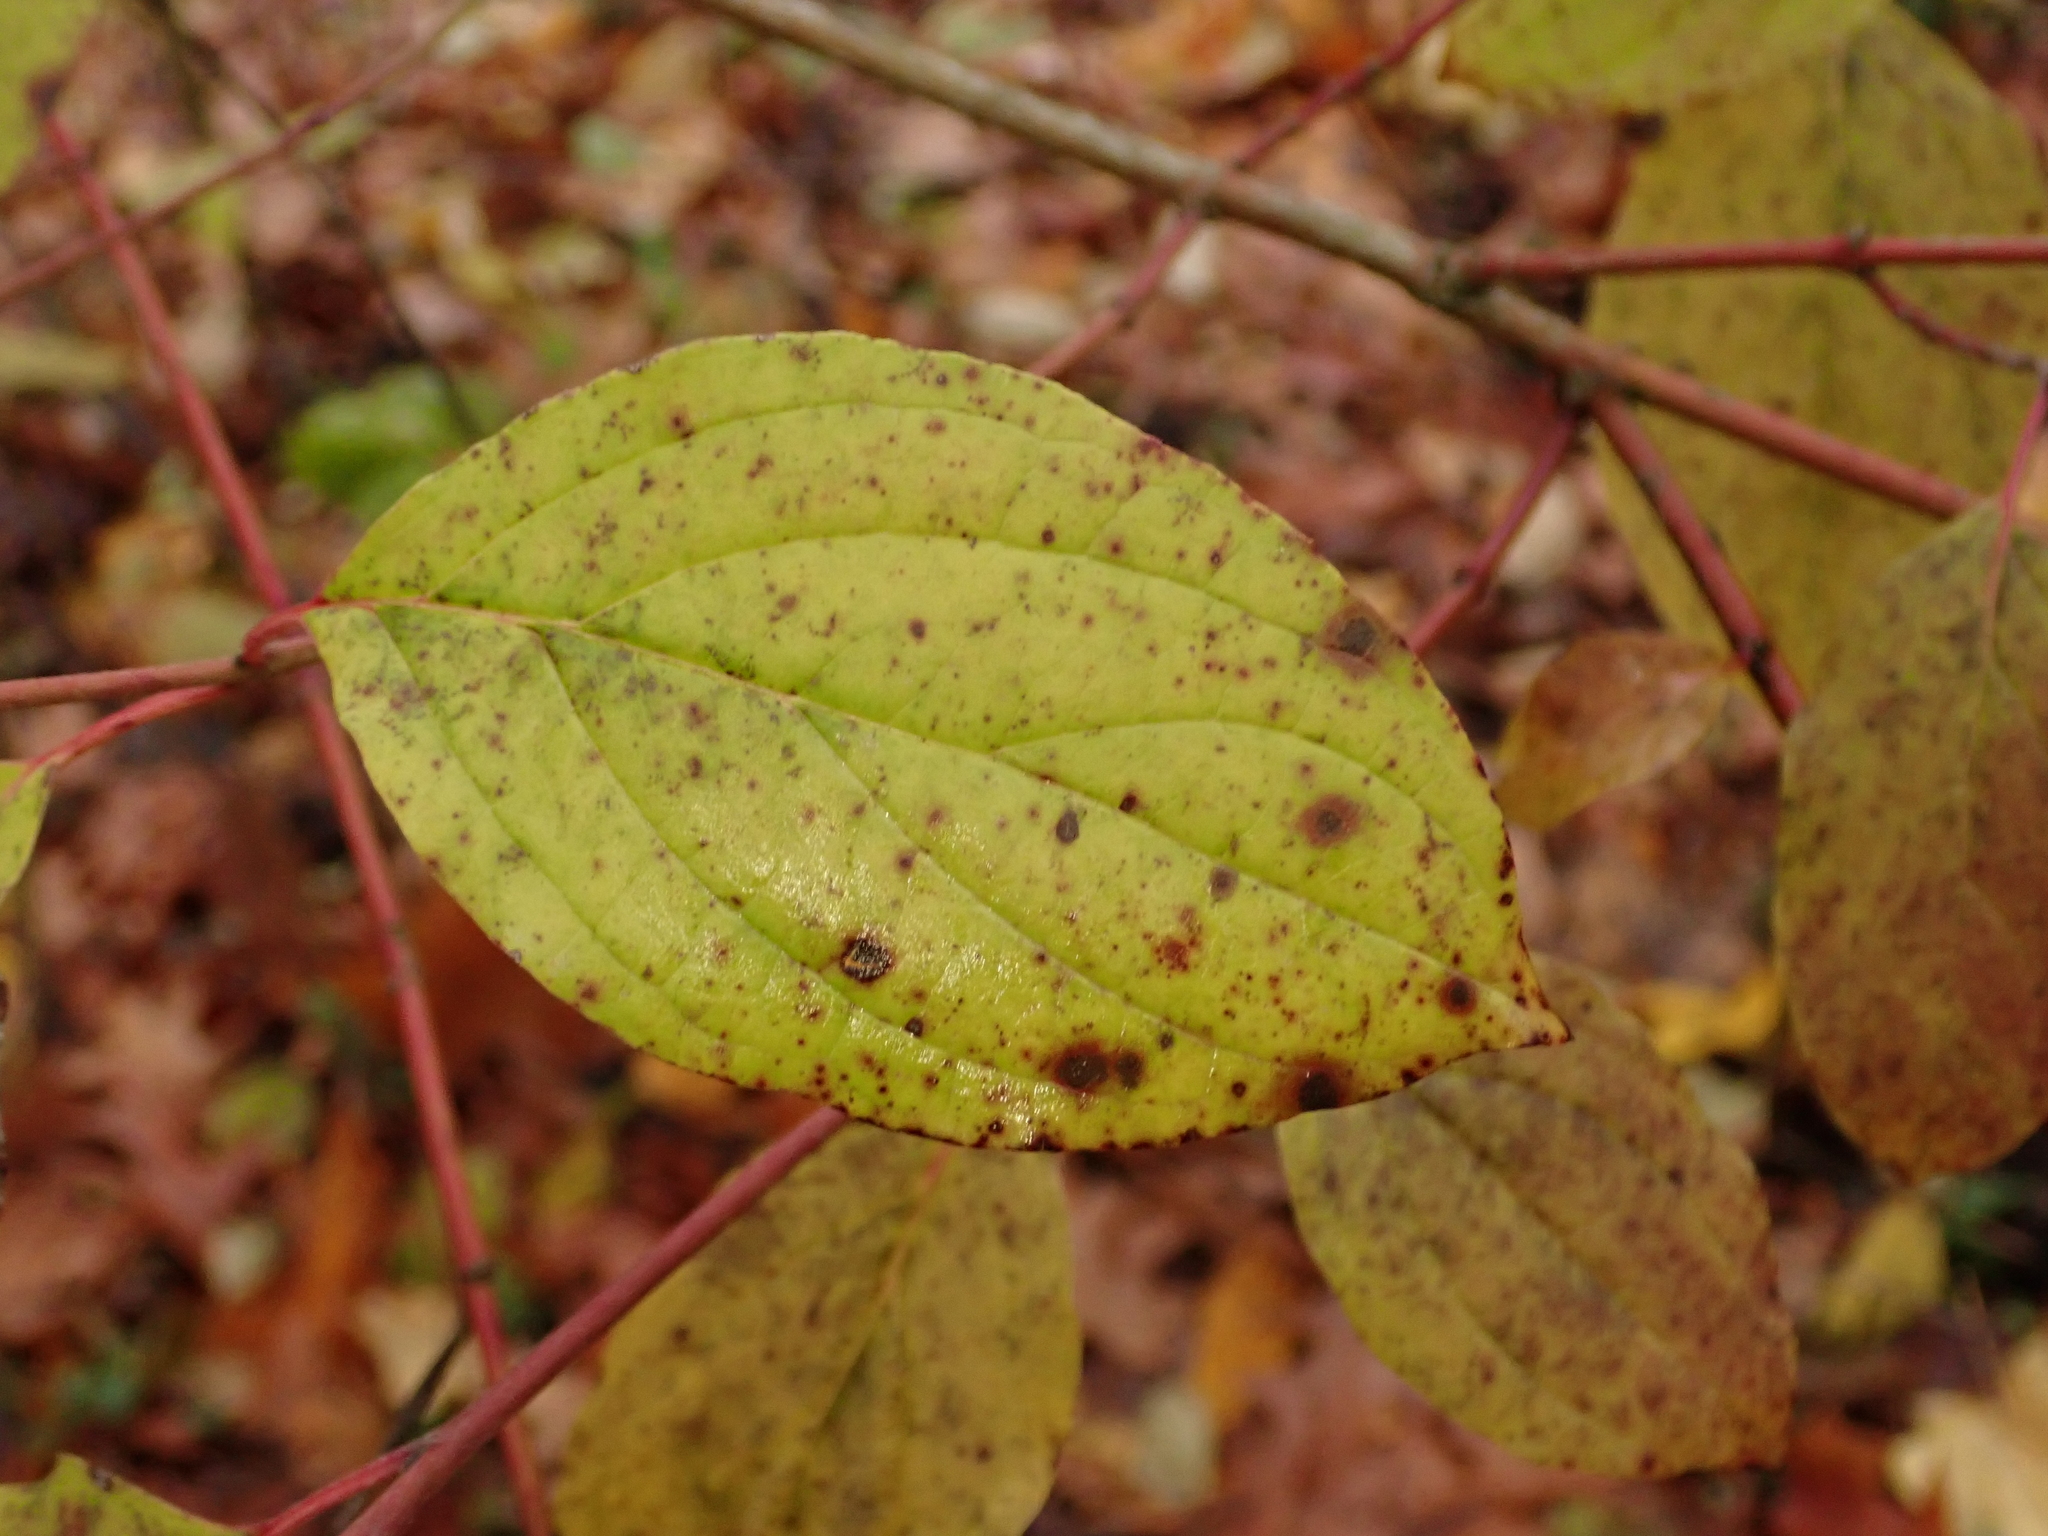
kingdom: Plantae
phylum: Tracheophyta
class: Magnoliopsida
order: Cornales
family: Cornaceae
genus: Cornus
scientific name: Cornus sanguinea
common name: Dogwood
